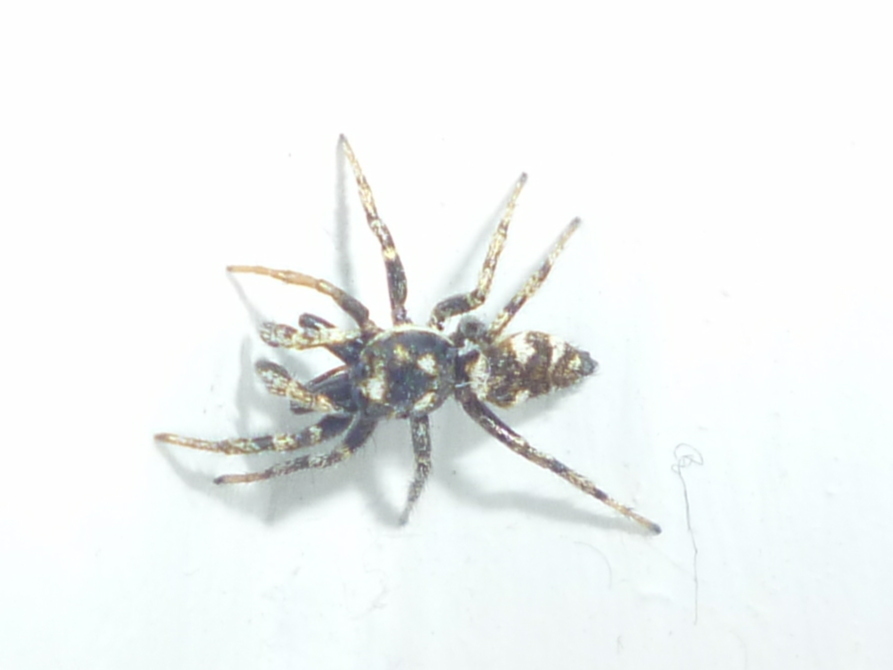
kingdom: Animalia
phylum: Arthropoda
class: Arachnida
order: Araneae
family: Salticidae
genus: Salticus
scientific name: Salticus scenicus
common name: Zebra jumper
